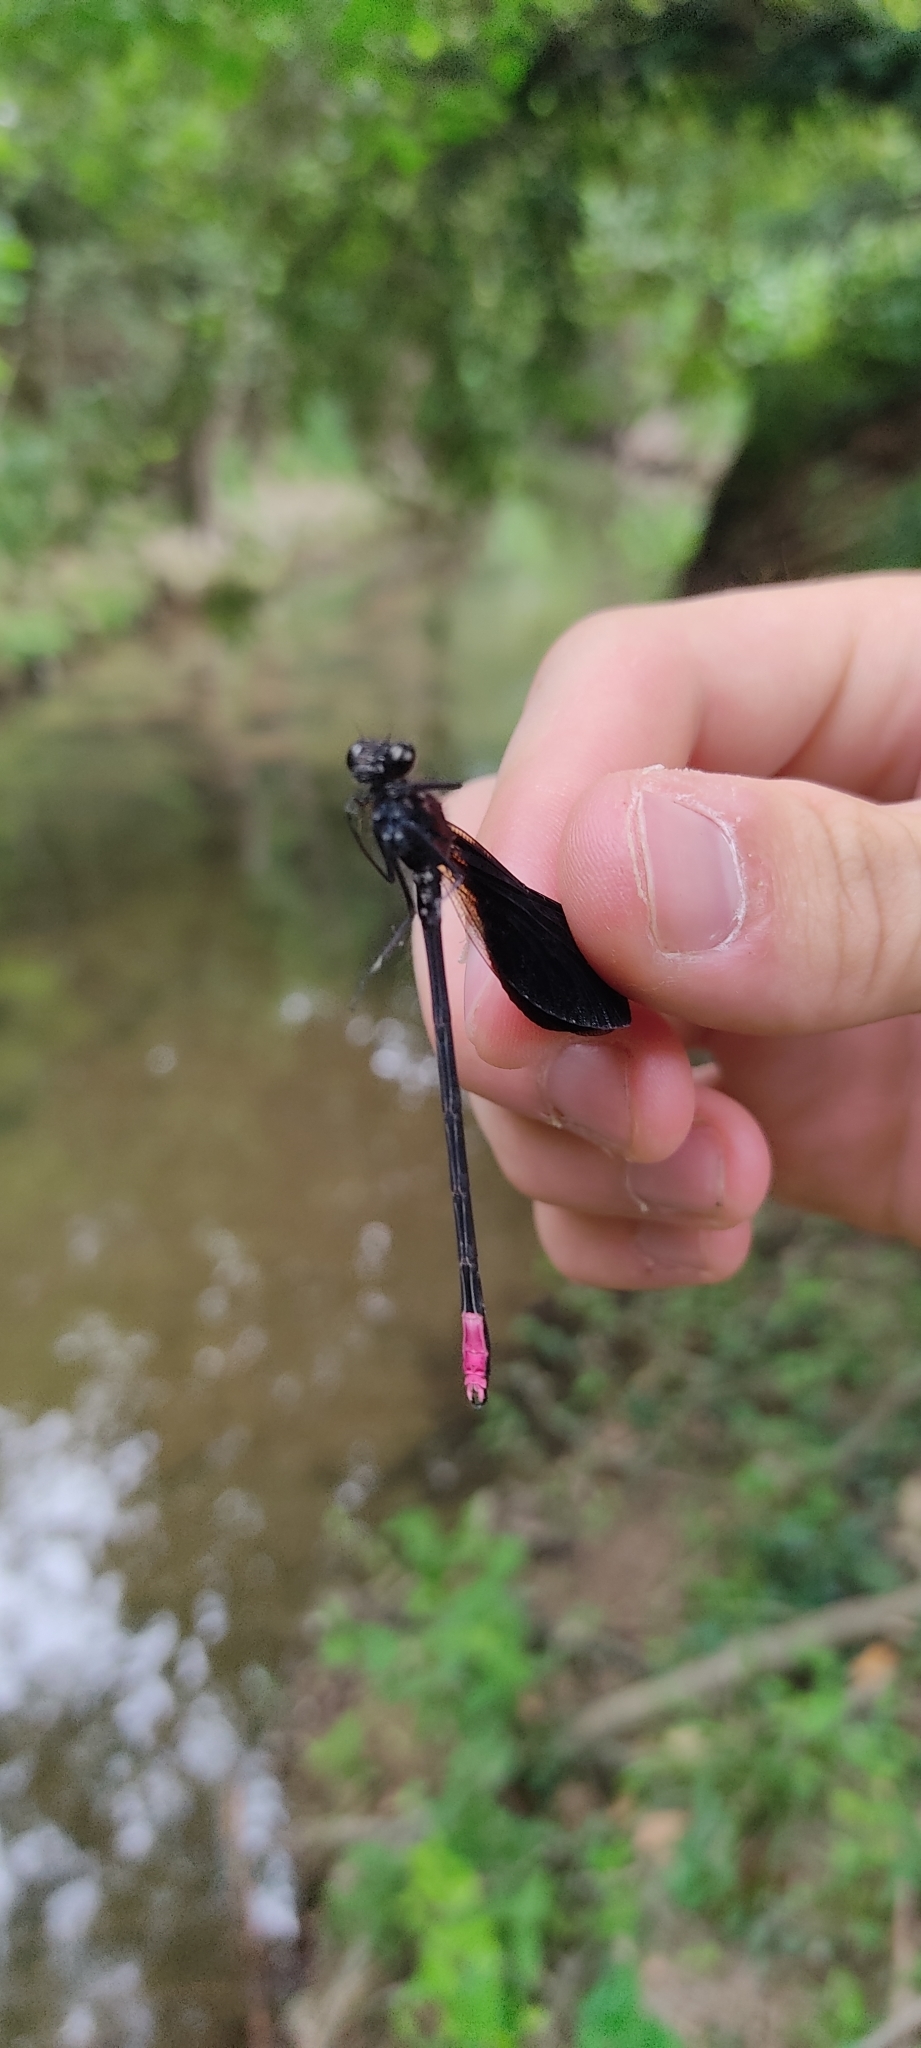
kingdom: Animalia
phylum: Arthropoda
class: Insecta
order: Odonata
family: Calopterygidae
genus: Calopteryx
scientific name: Calopteryx haemorrhoidalis
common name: Copper demoiselle
